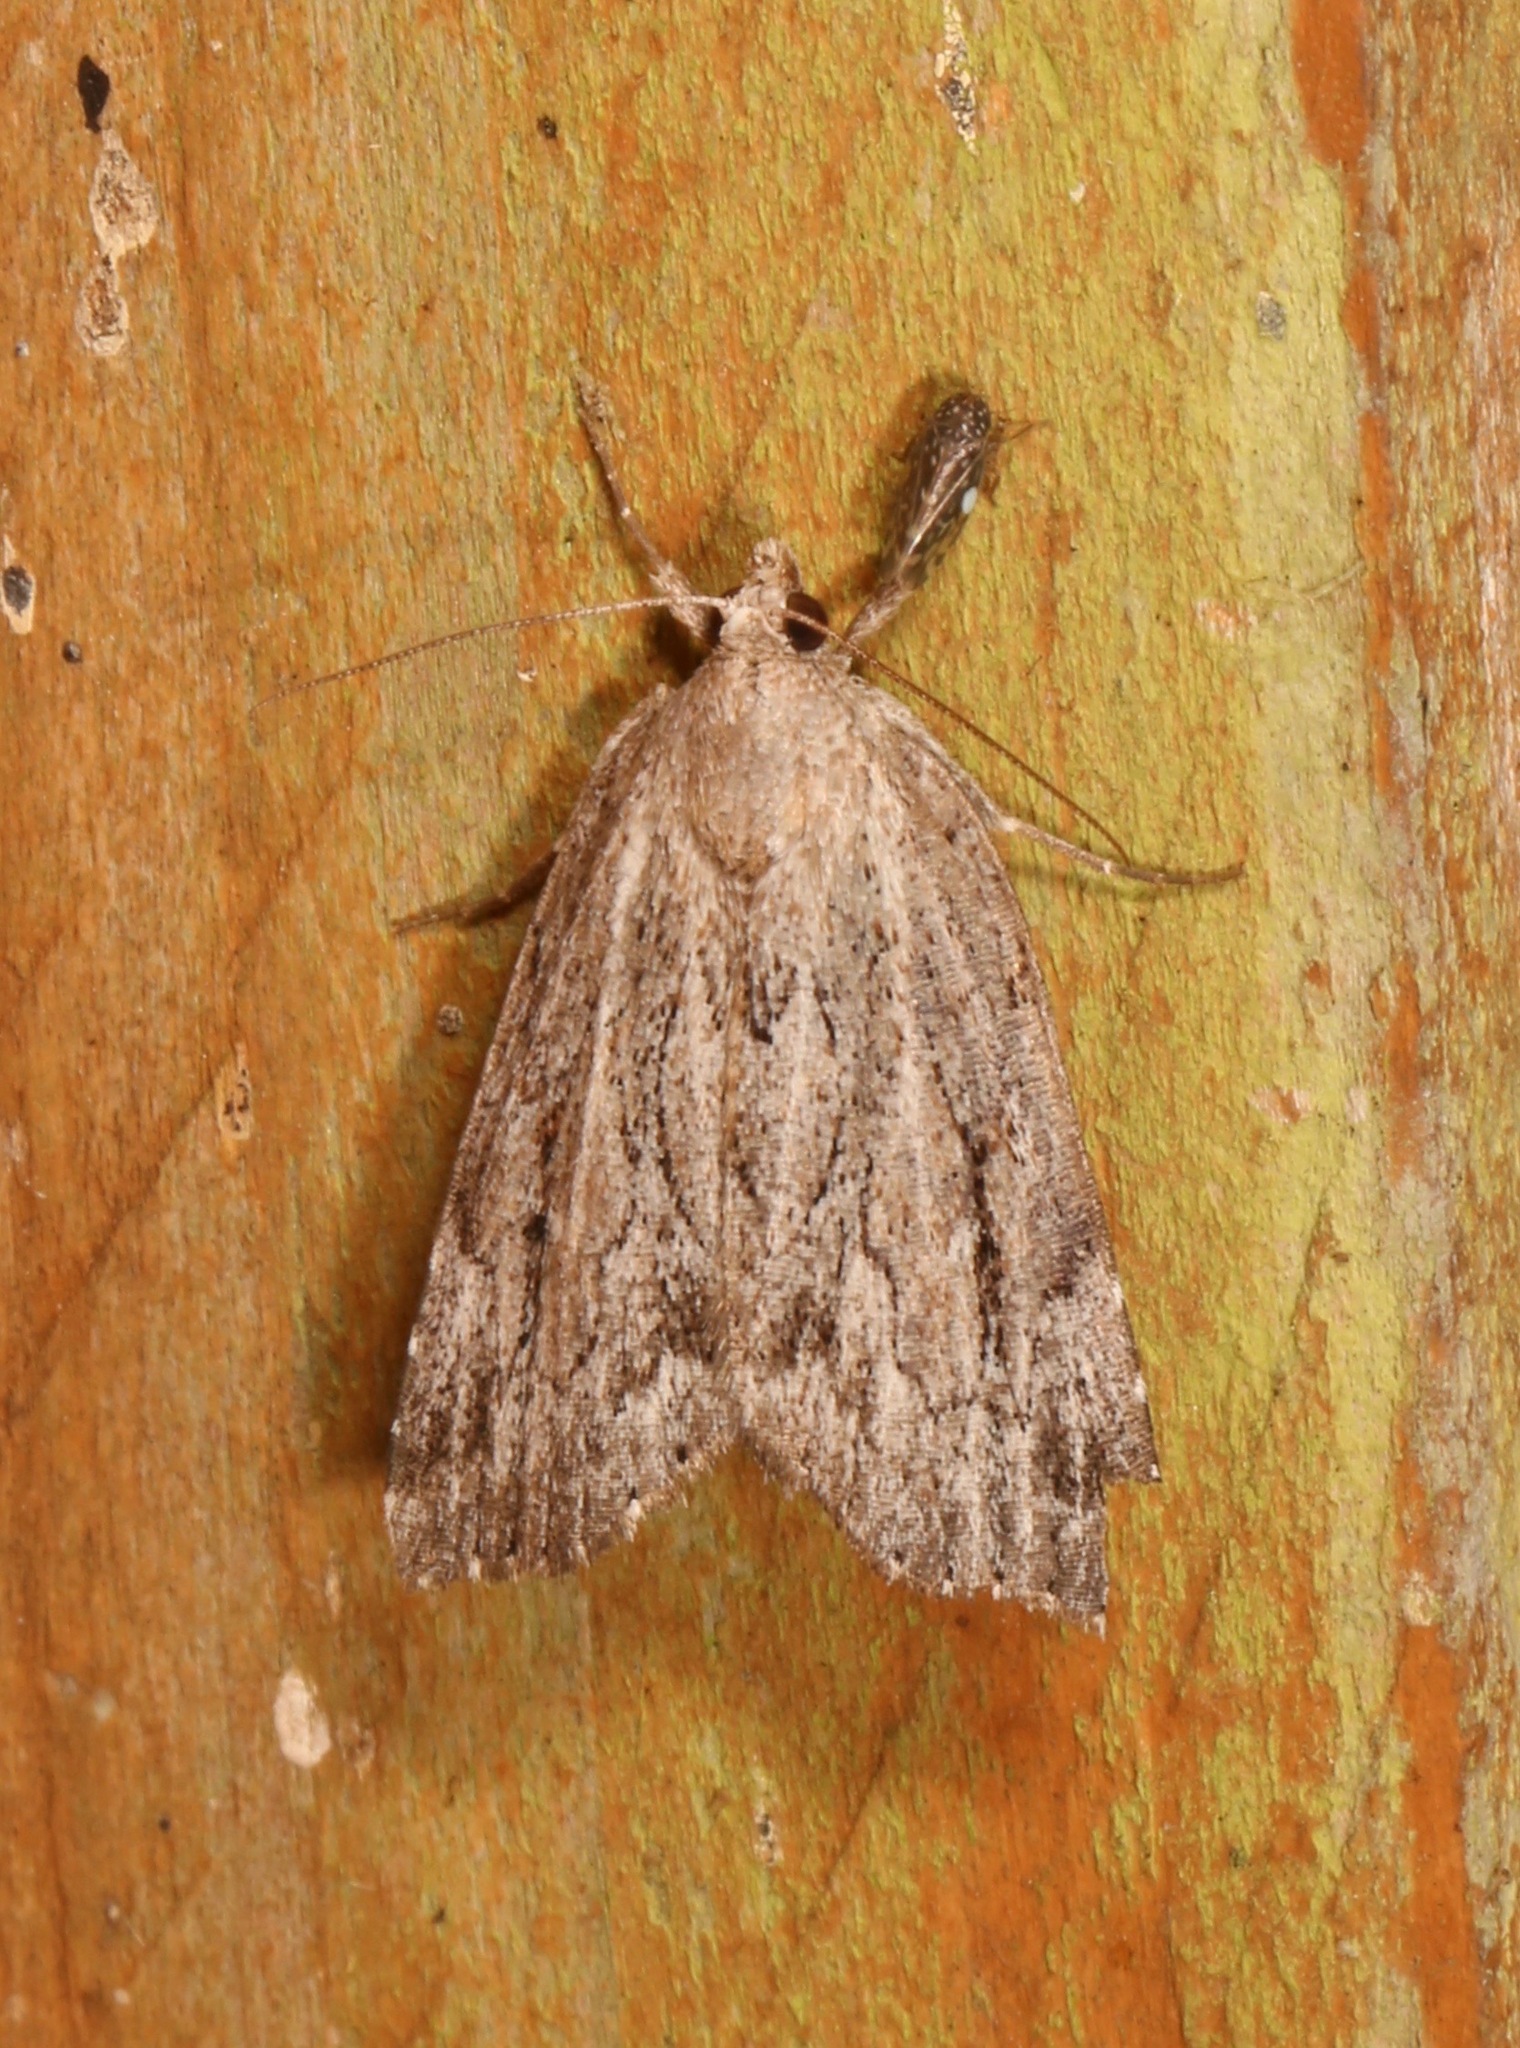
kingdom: Animalia
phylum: Arthropoda
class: Insecta
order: Lepidoptera
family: Erebidae
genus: Cutina
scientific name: Cutina albopunctella
